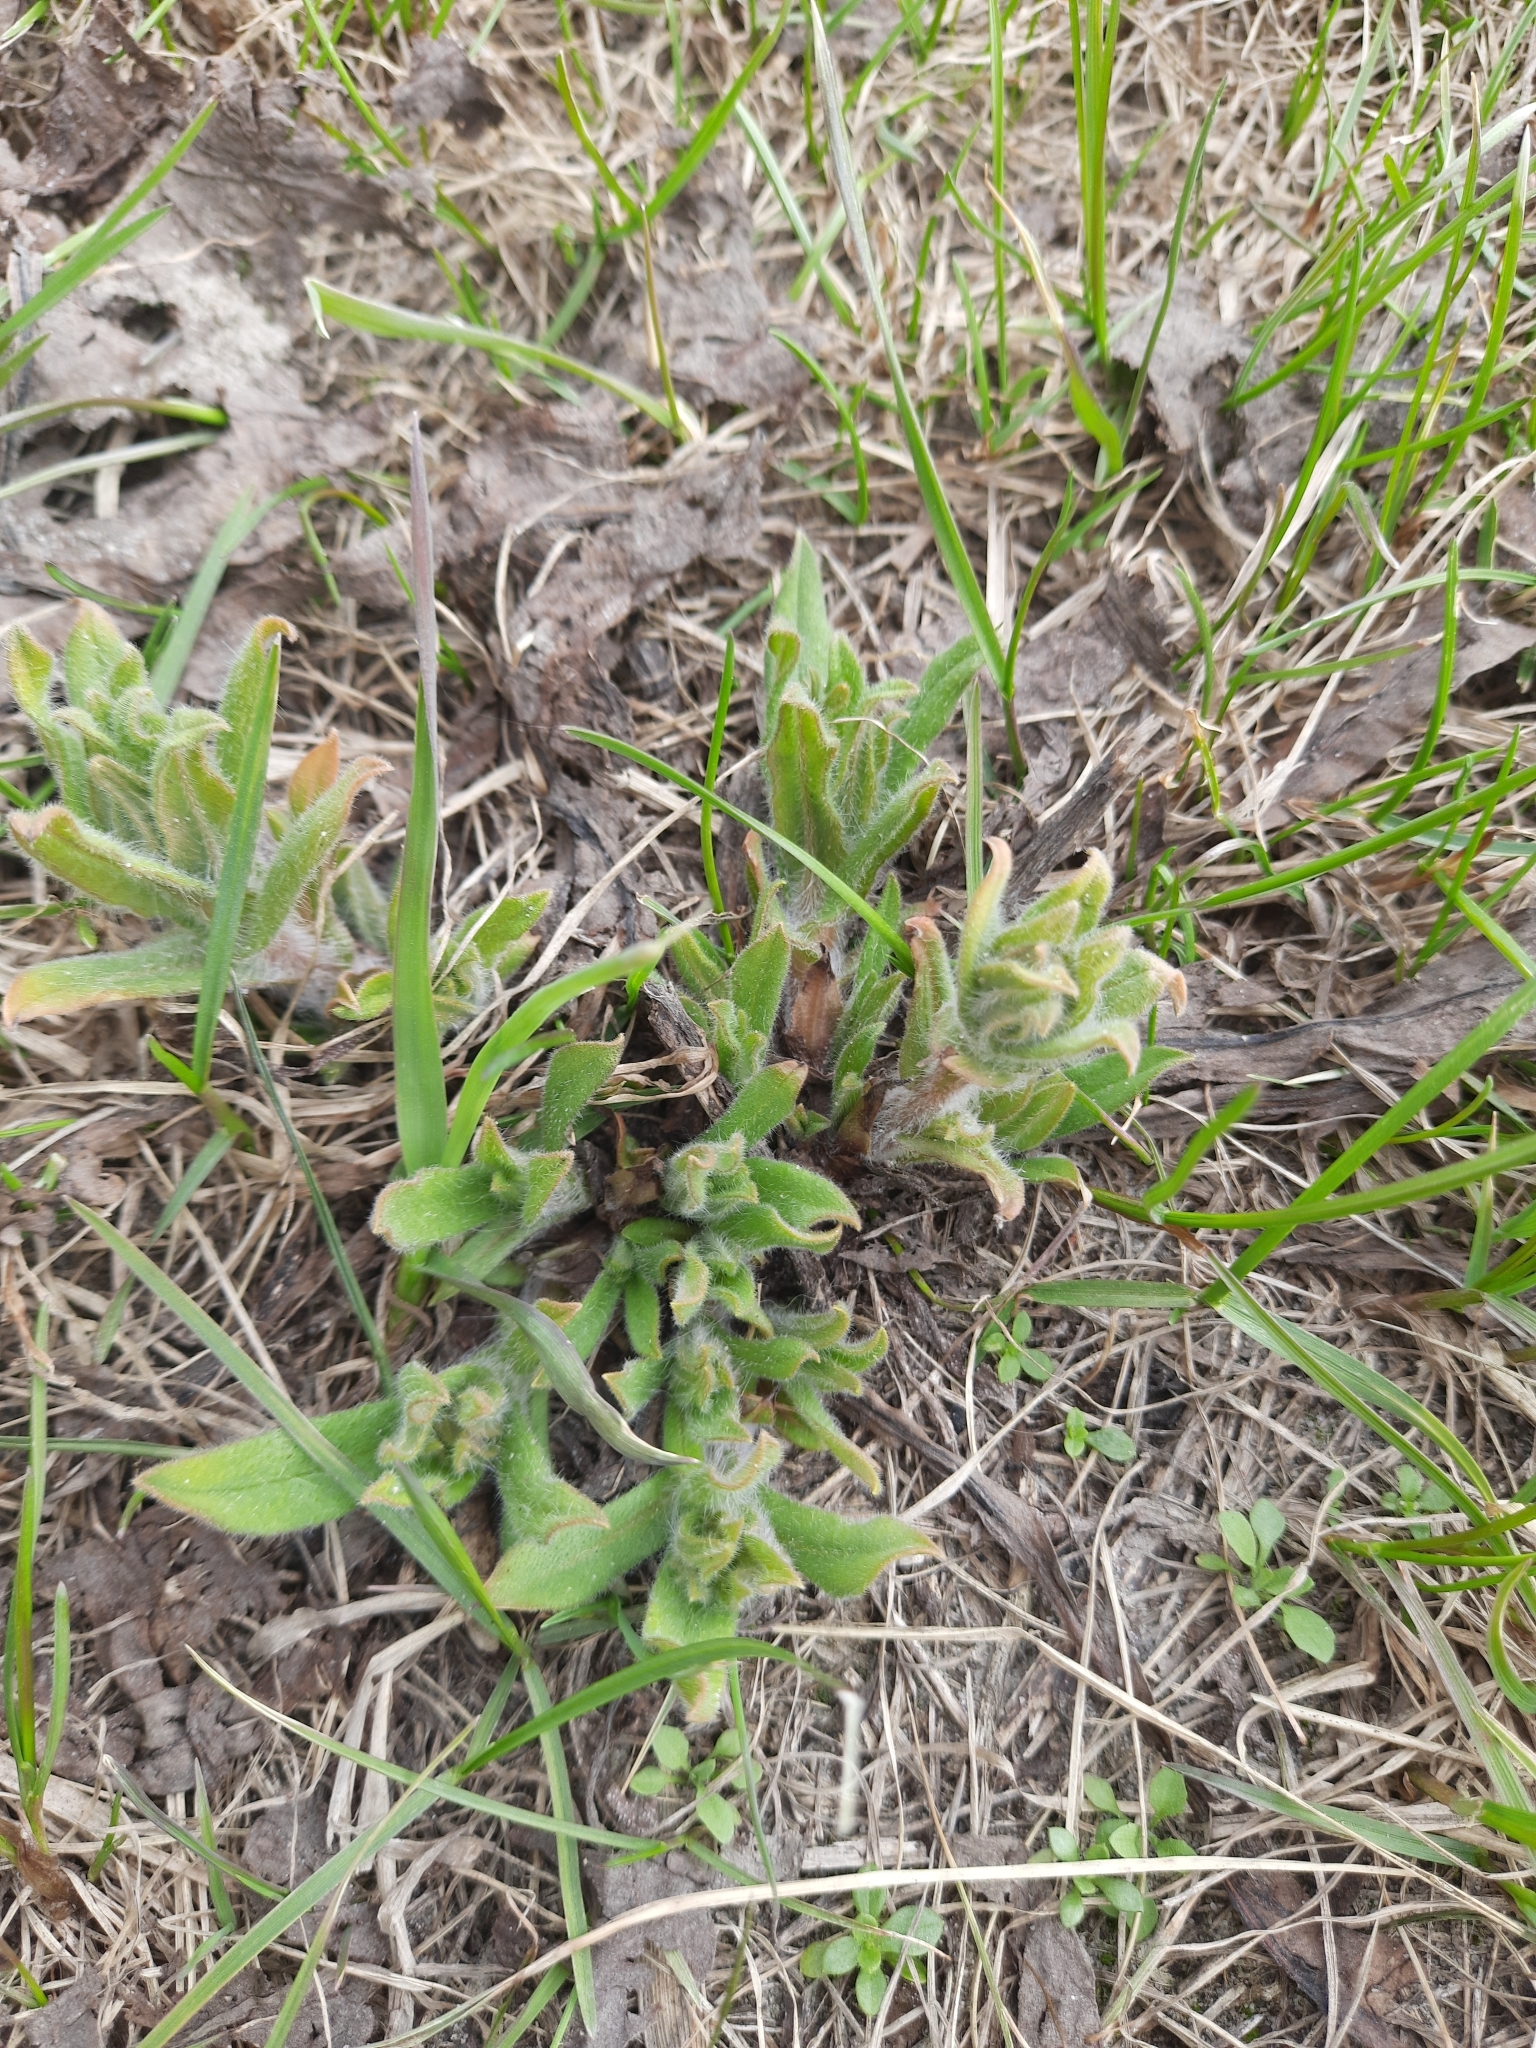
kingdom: Plantae
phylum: Tracheophyta
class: Magnoliopsida
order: Boraginales
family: Boraginaceae
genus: Nonea
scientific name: Nonea pulla
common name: Brown nonea
